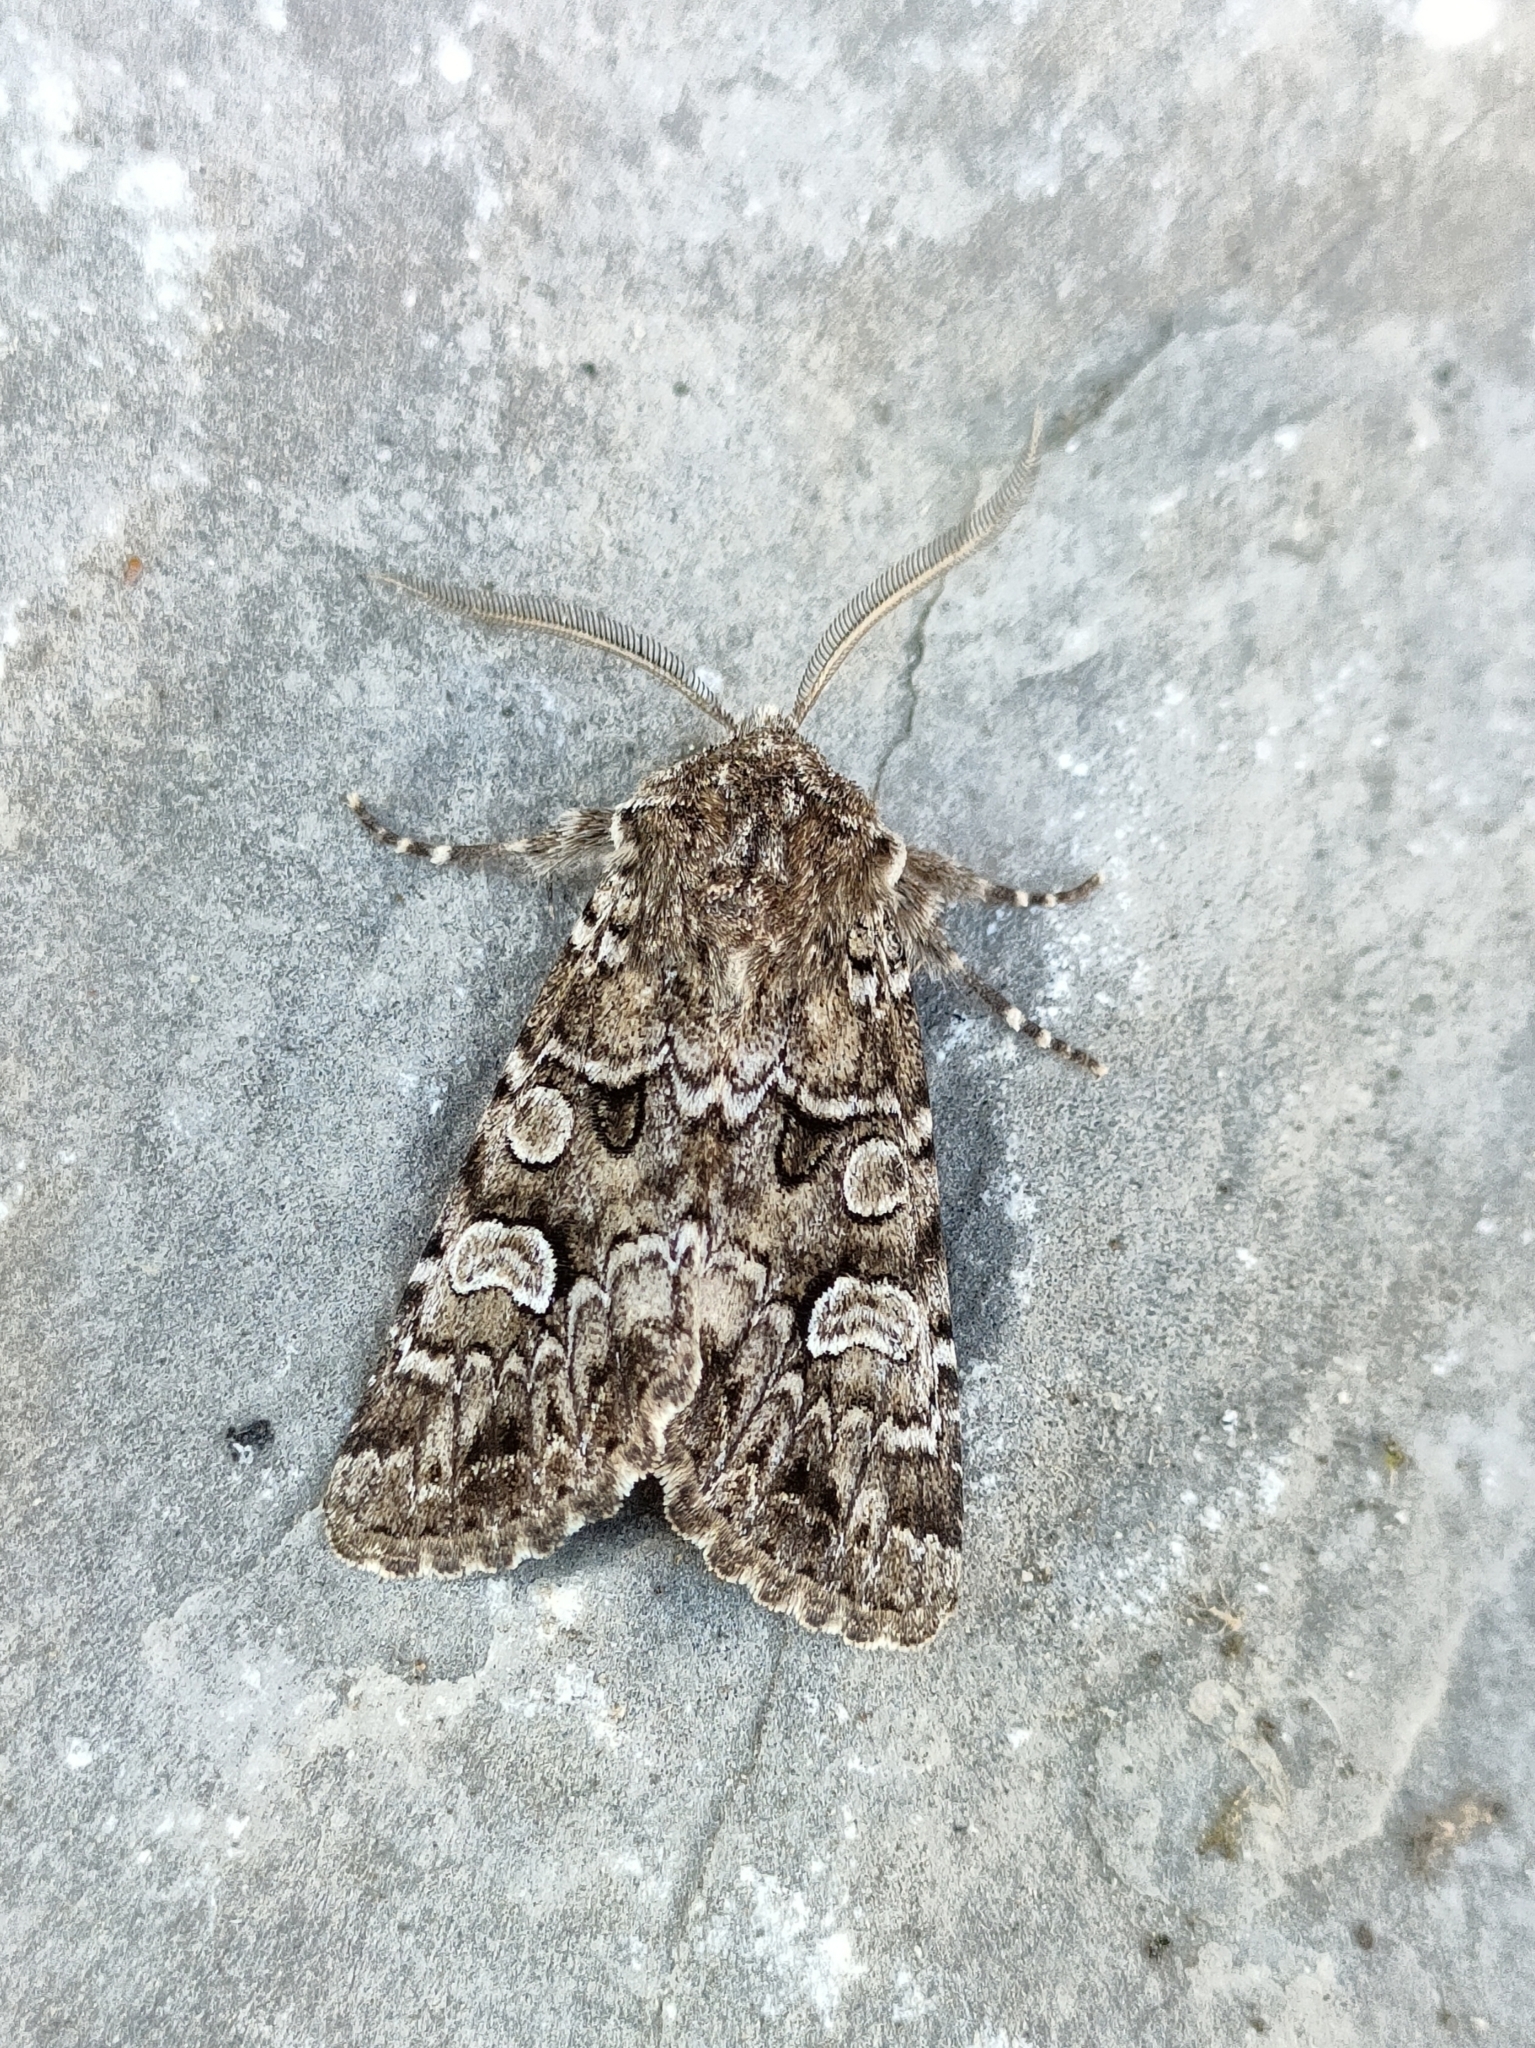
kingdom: Animalia
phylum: Arthropoda
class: Insecta
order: Lepidoptera
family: Noctuidae
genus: Pachetra
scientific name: Pachetra sagittigera
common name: Feathered ear
